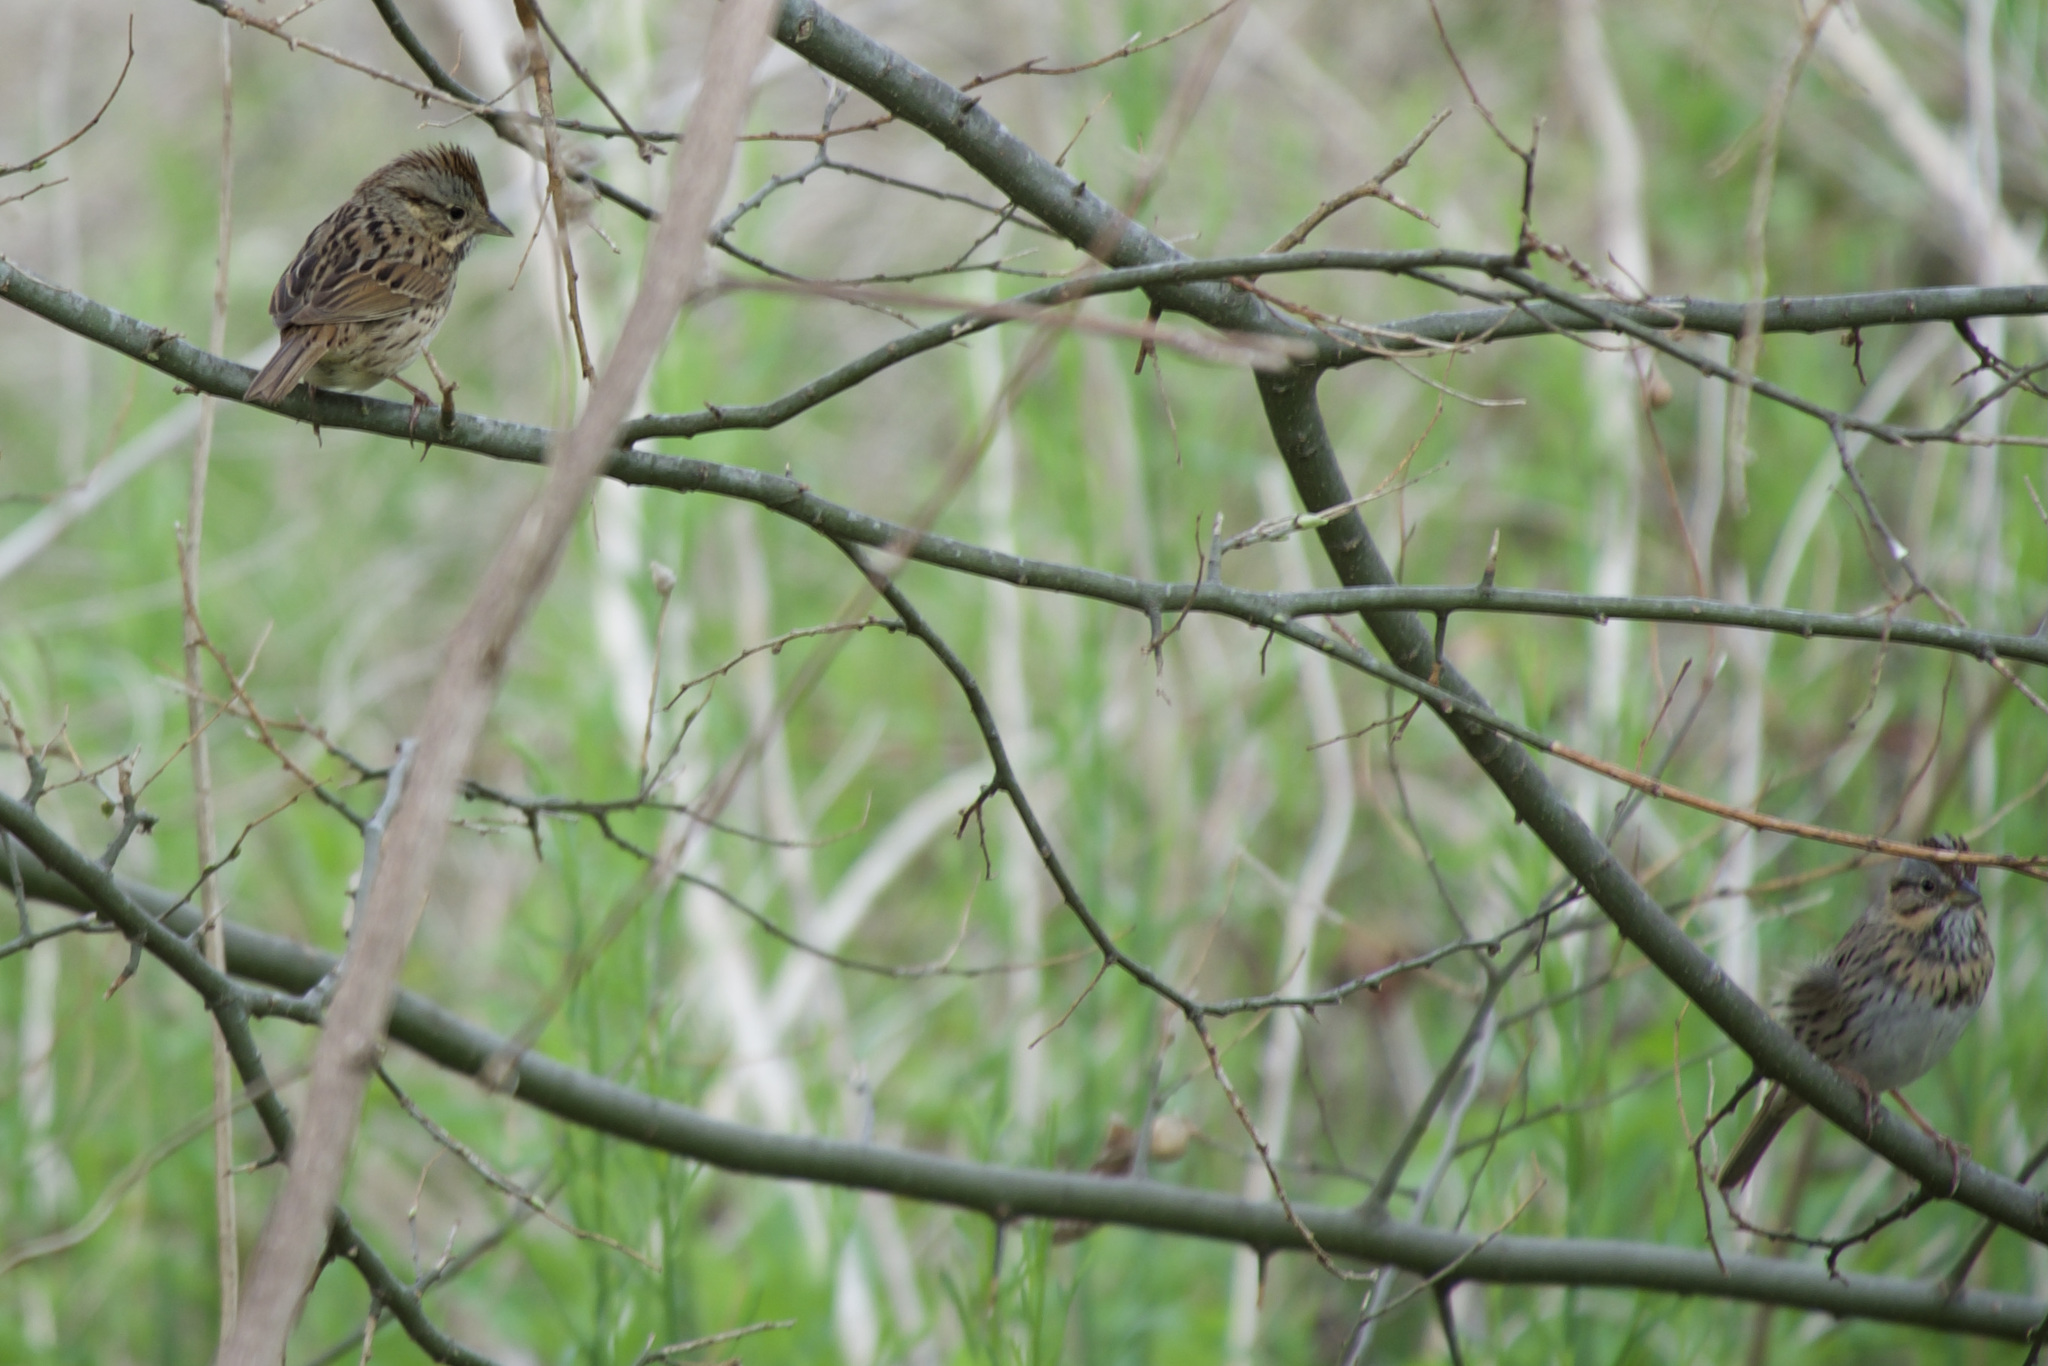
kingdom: Animalia
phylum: Chordata
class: Aves
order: Passeriformes
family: Passerellidae
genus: Melospiza
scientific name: Melospiza lincolnii
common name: Lincoln's sparrow
